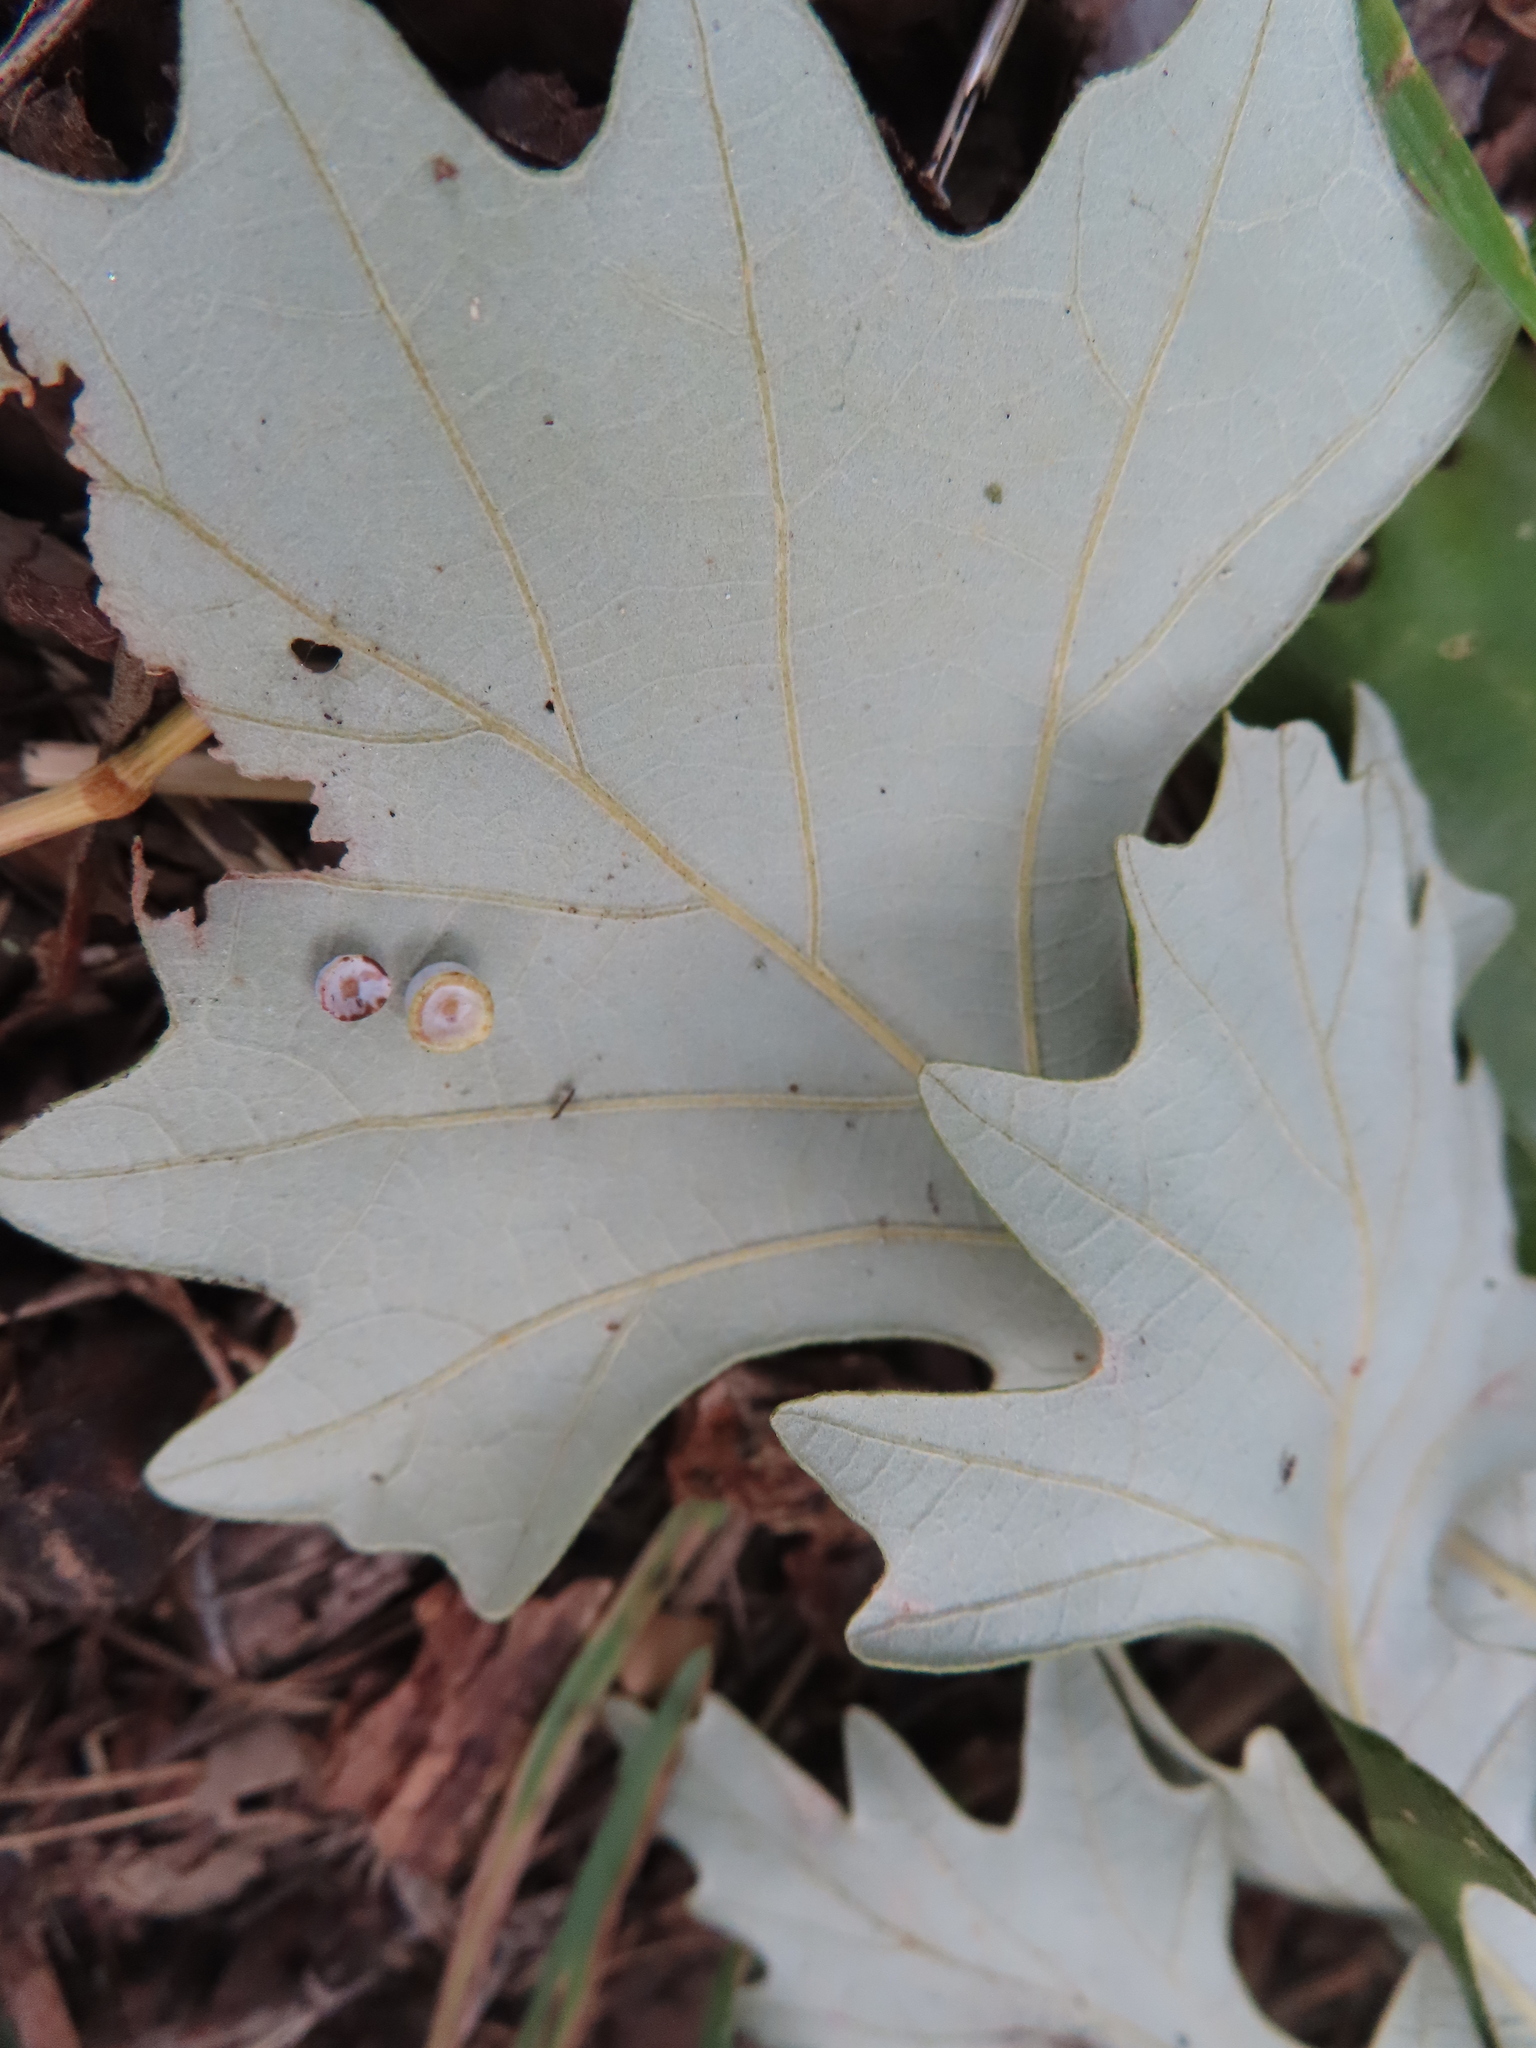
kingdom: Animalia
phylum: Arthropoda
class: Insecta
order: Hymenoptera
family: Cynipidae
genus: Phylloteras
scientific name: Phylloteras
